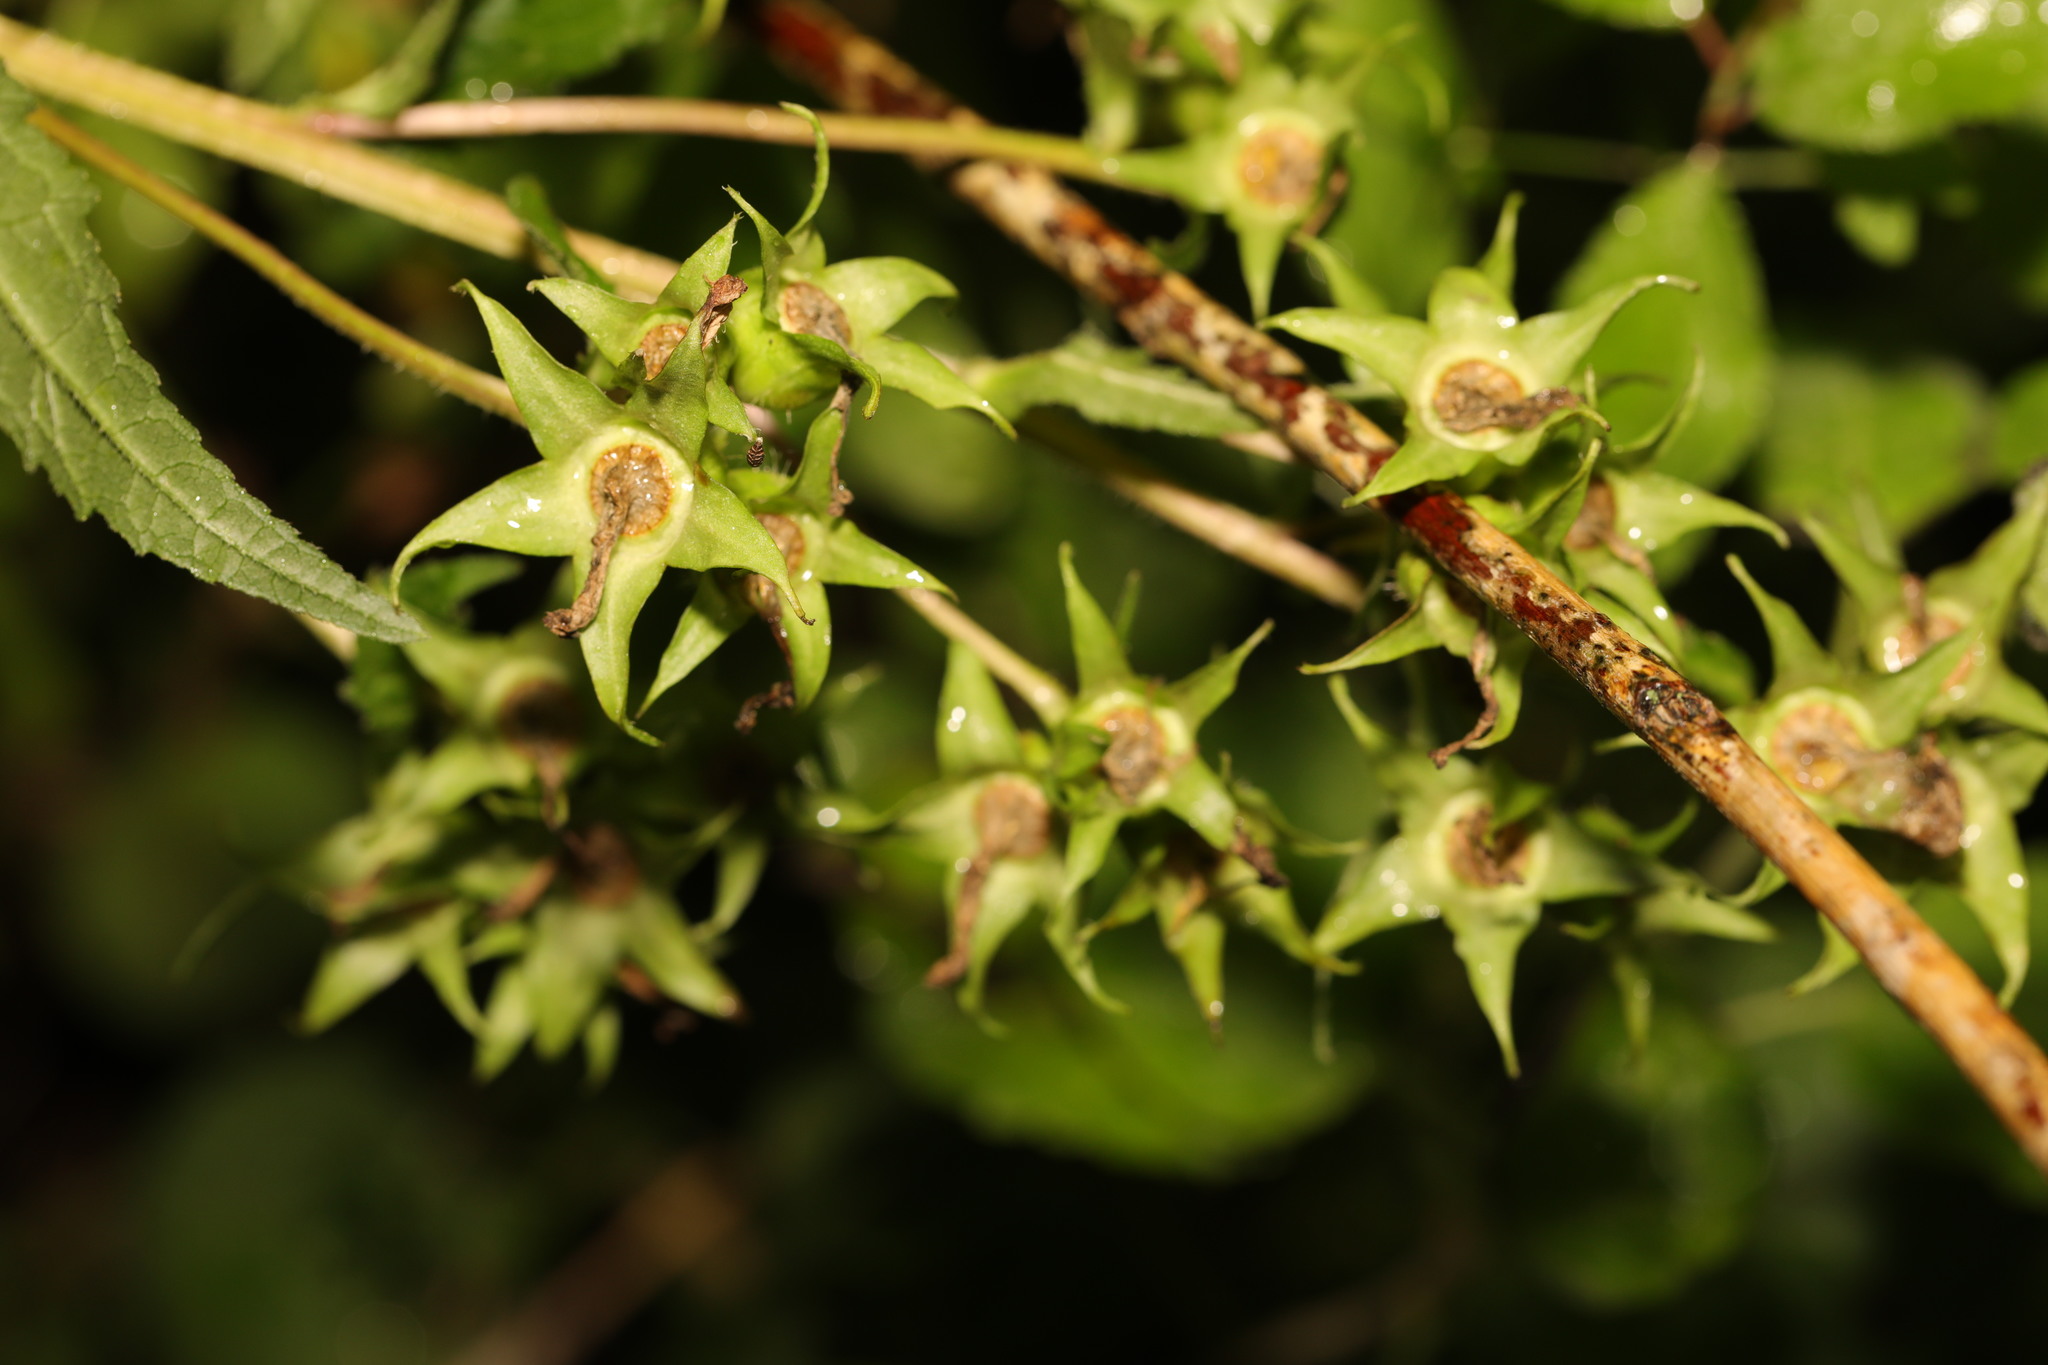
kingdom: Plantae
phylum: Tracheophyta
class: Magnoliopsida
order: Asterales
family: Campanulaceae
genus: Campanula
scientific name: Campanula trachelium
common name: Nettle-leaved bellflower
